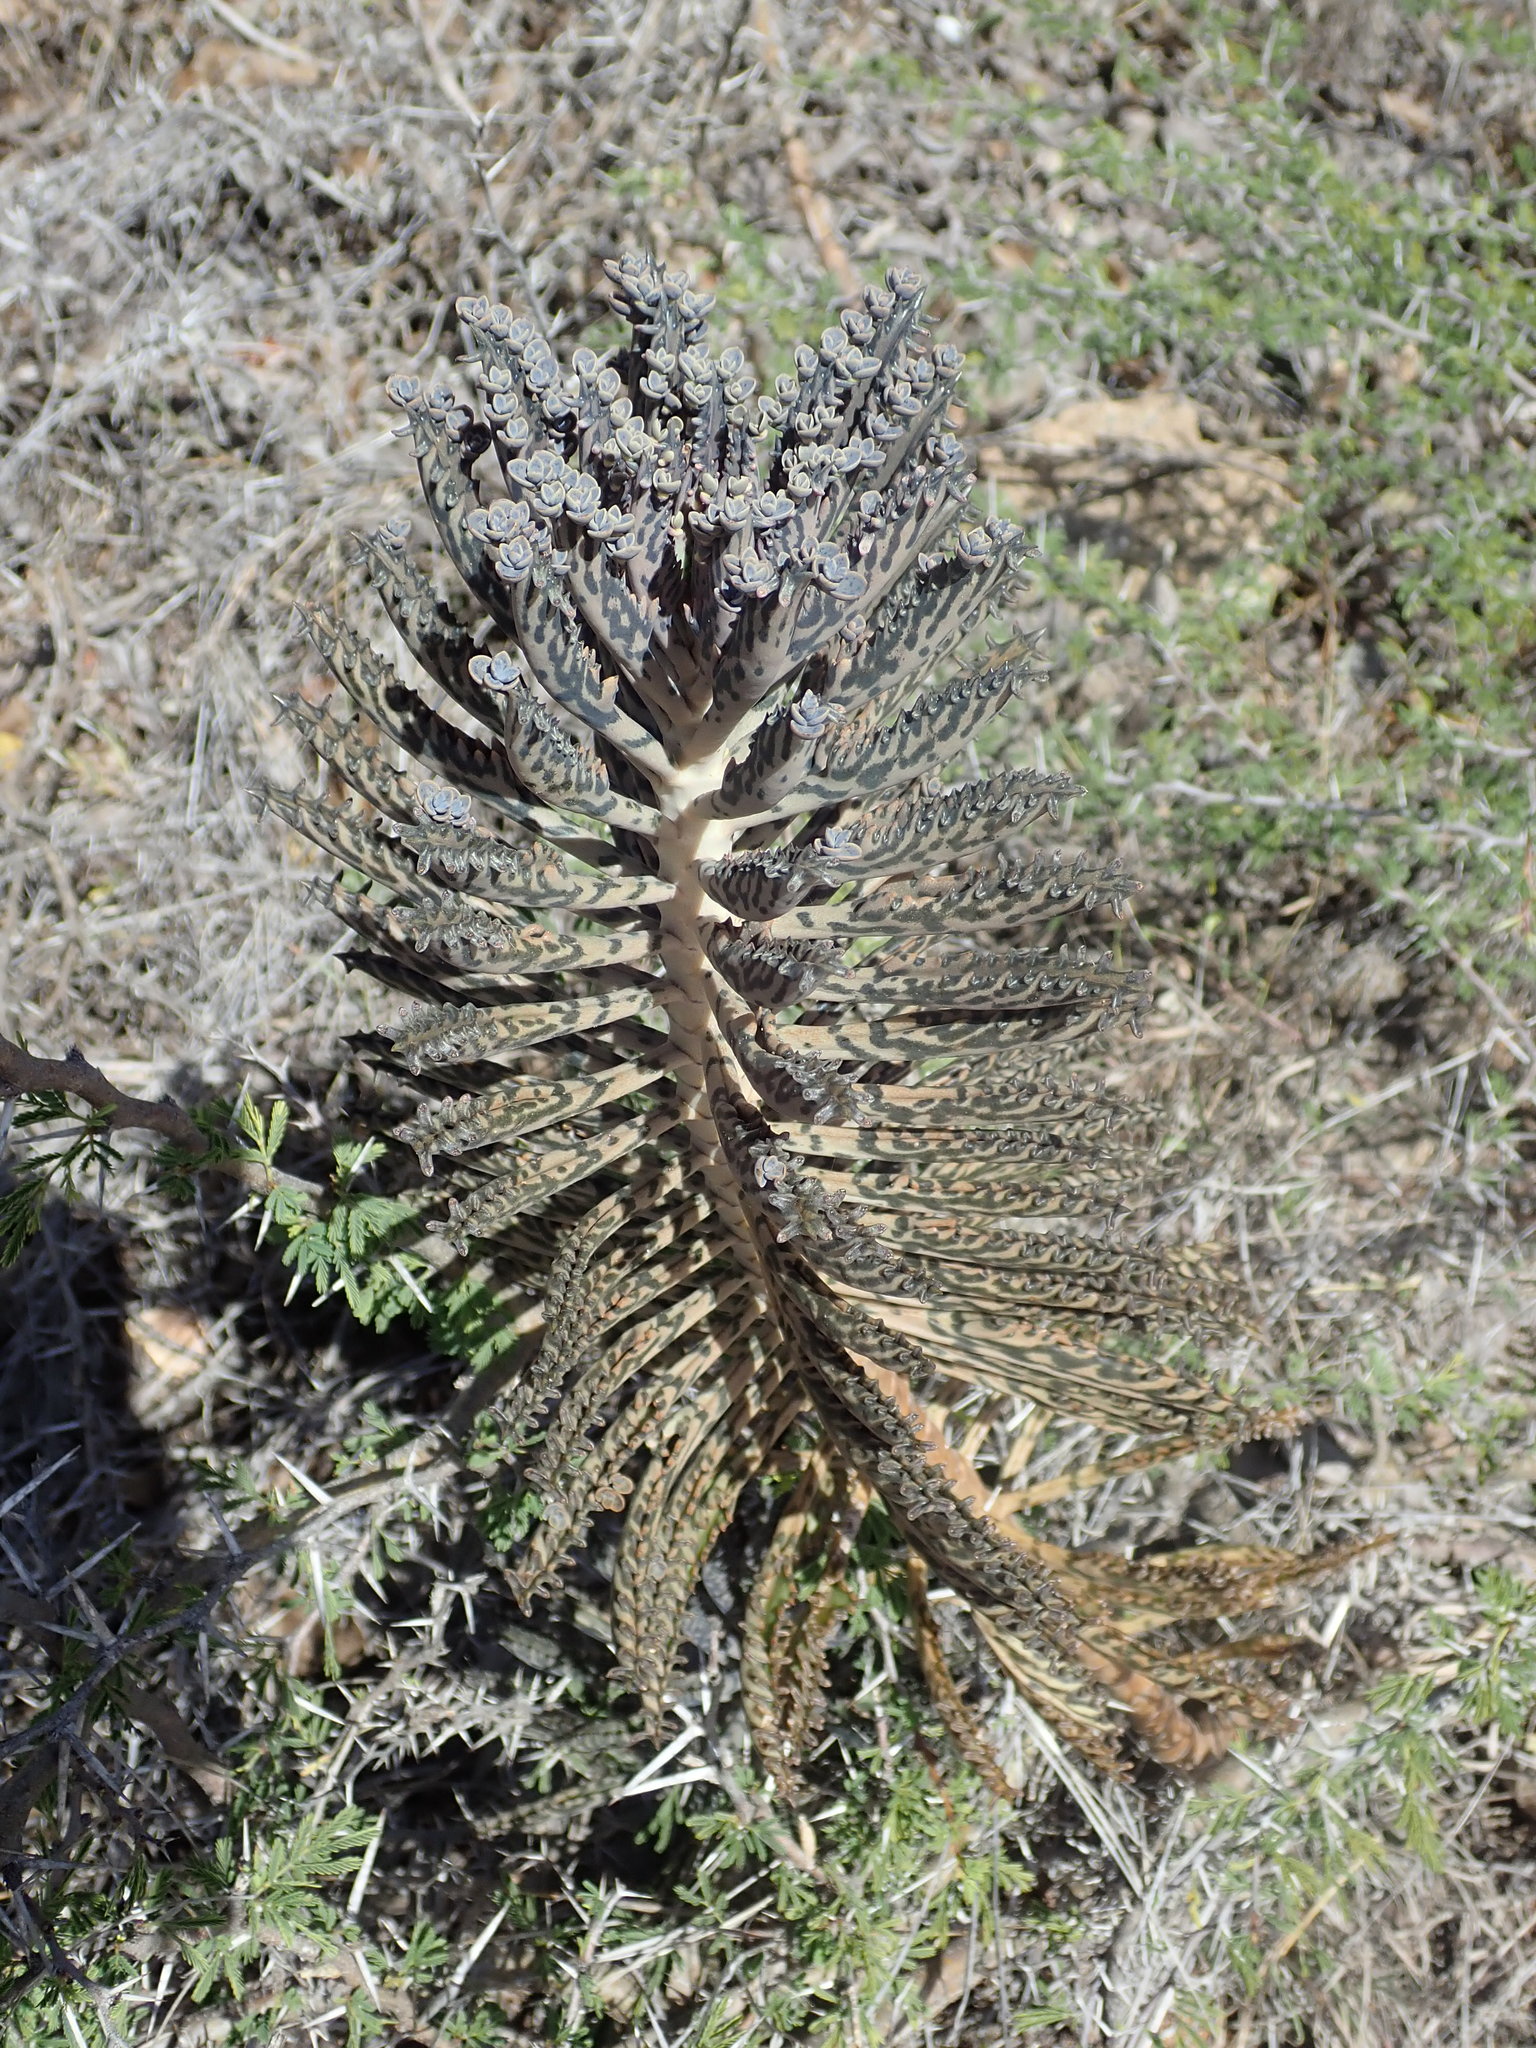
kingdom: Plantae
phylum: Tracheophyta
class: Magnoliopsida
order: Saxifragales
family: Crassulaceae
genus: Kalanchoe
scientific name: Kalanchoe houghtonii
